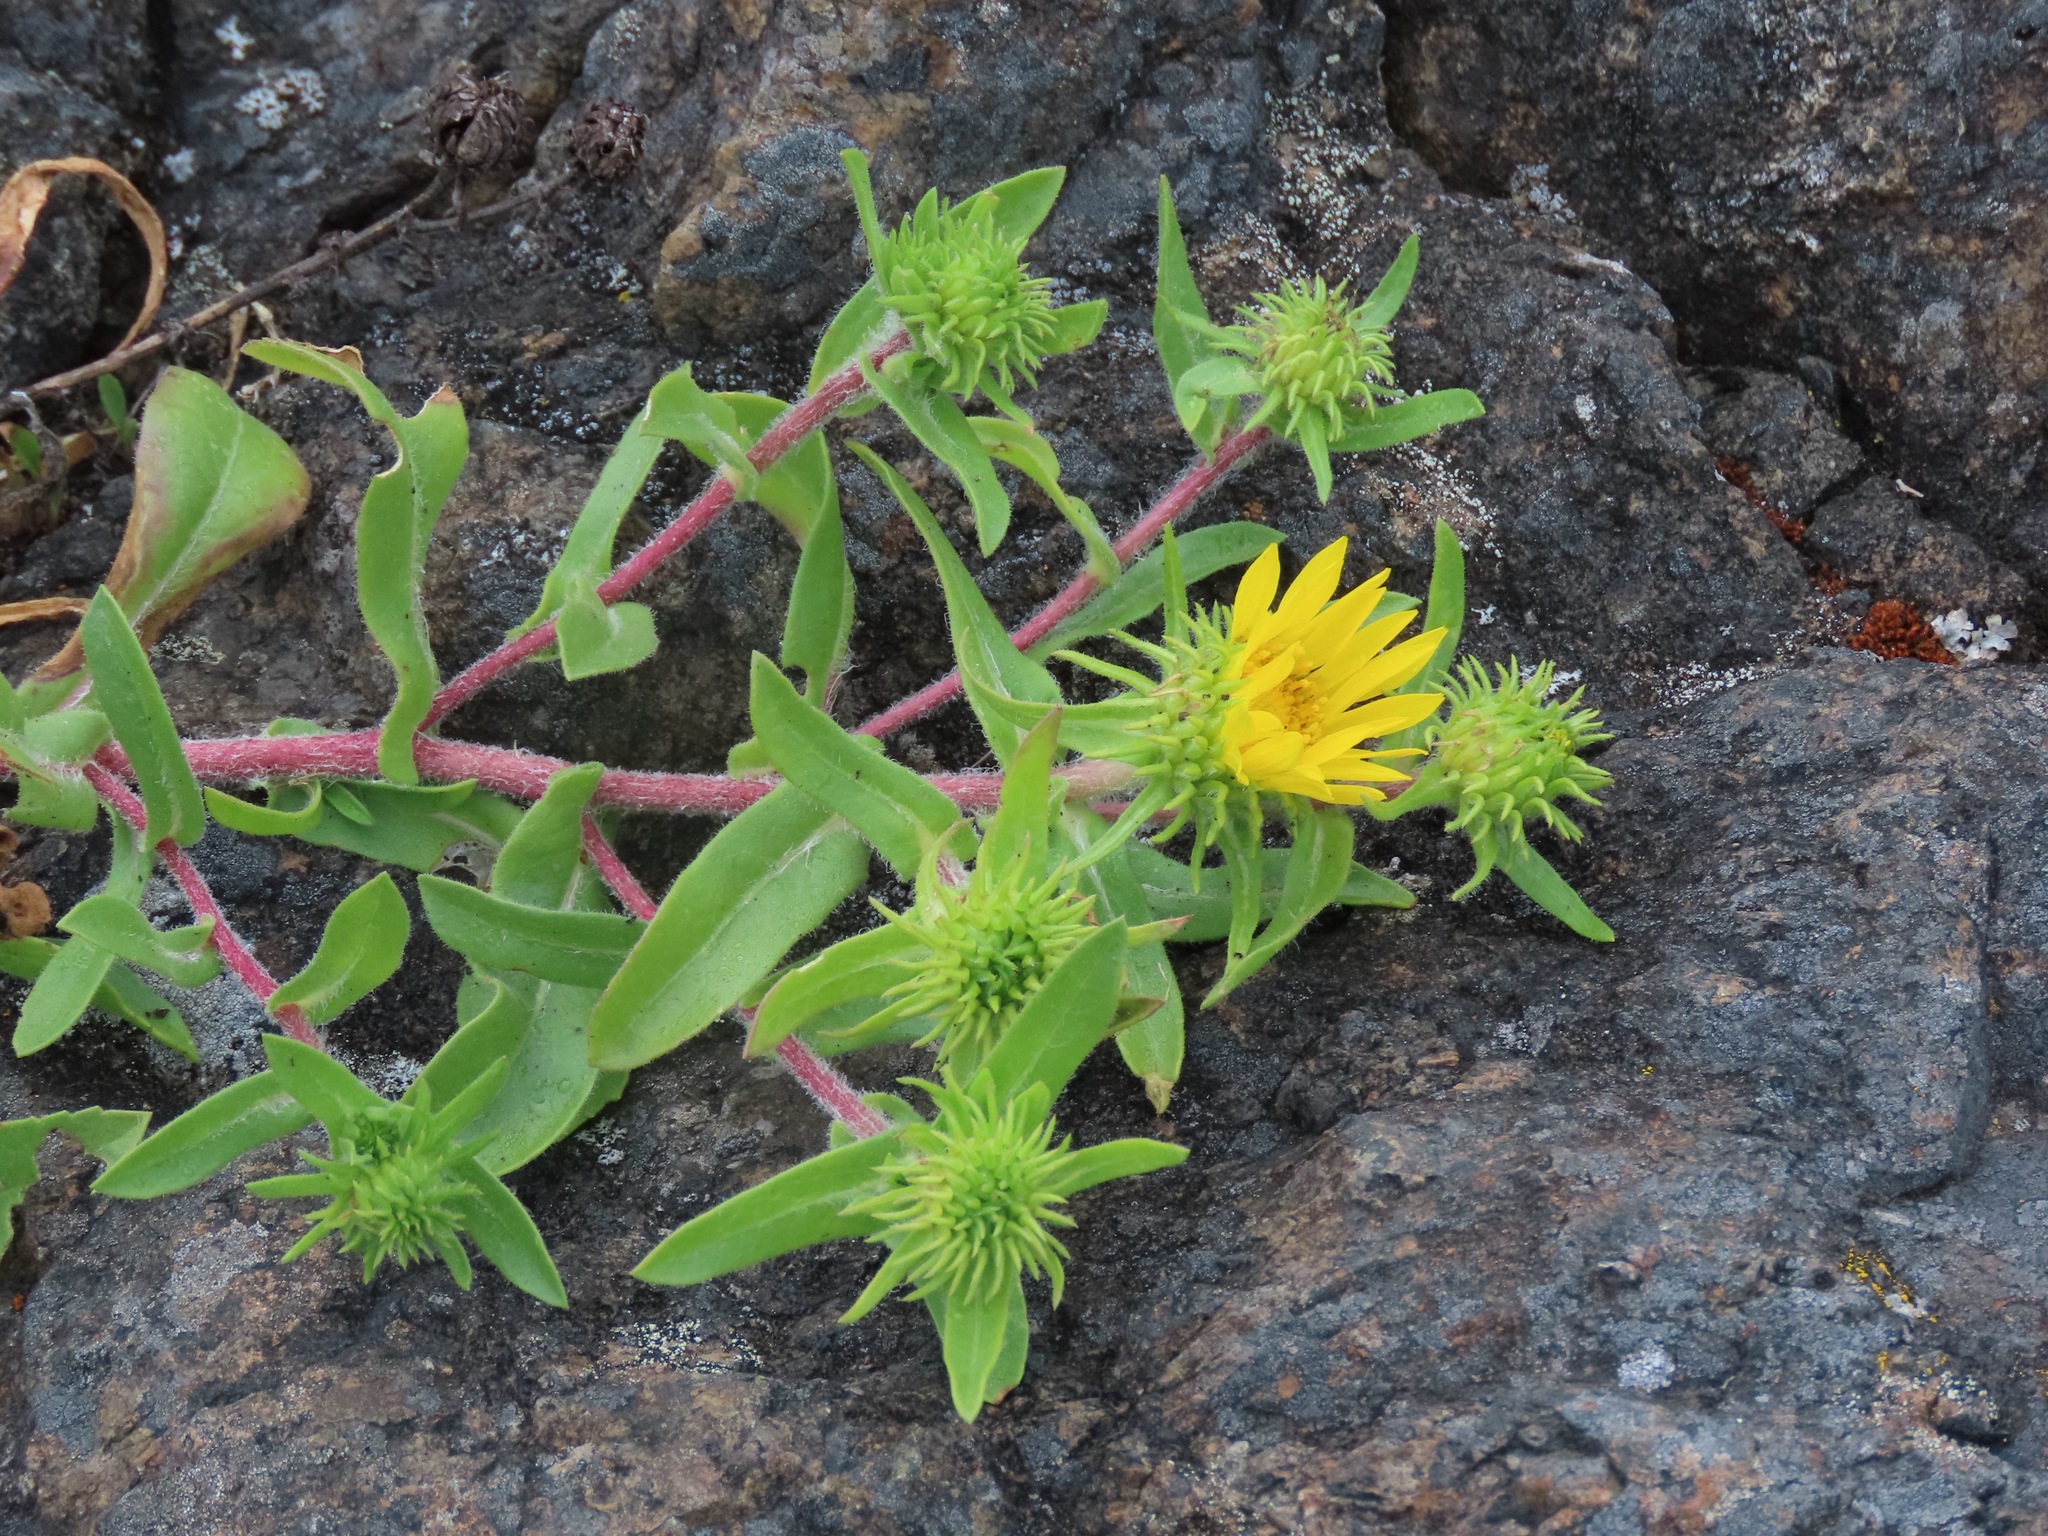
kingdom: Plantae
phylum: Tracheophyta
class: Magnoliopsida
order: Asterales
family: Asteraceae
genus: Grindelia
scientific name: Grindelia hirsutula
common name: Hairy gumweed
